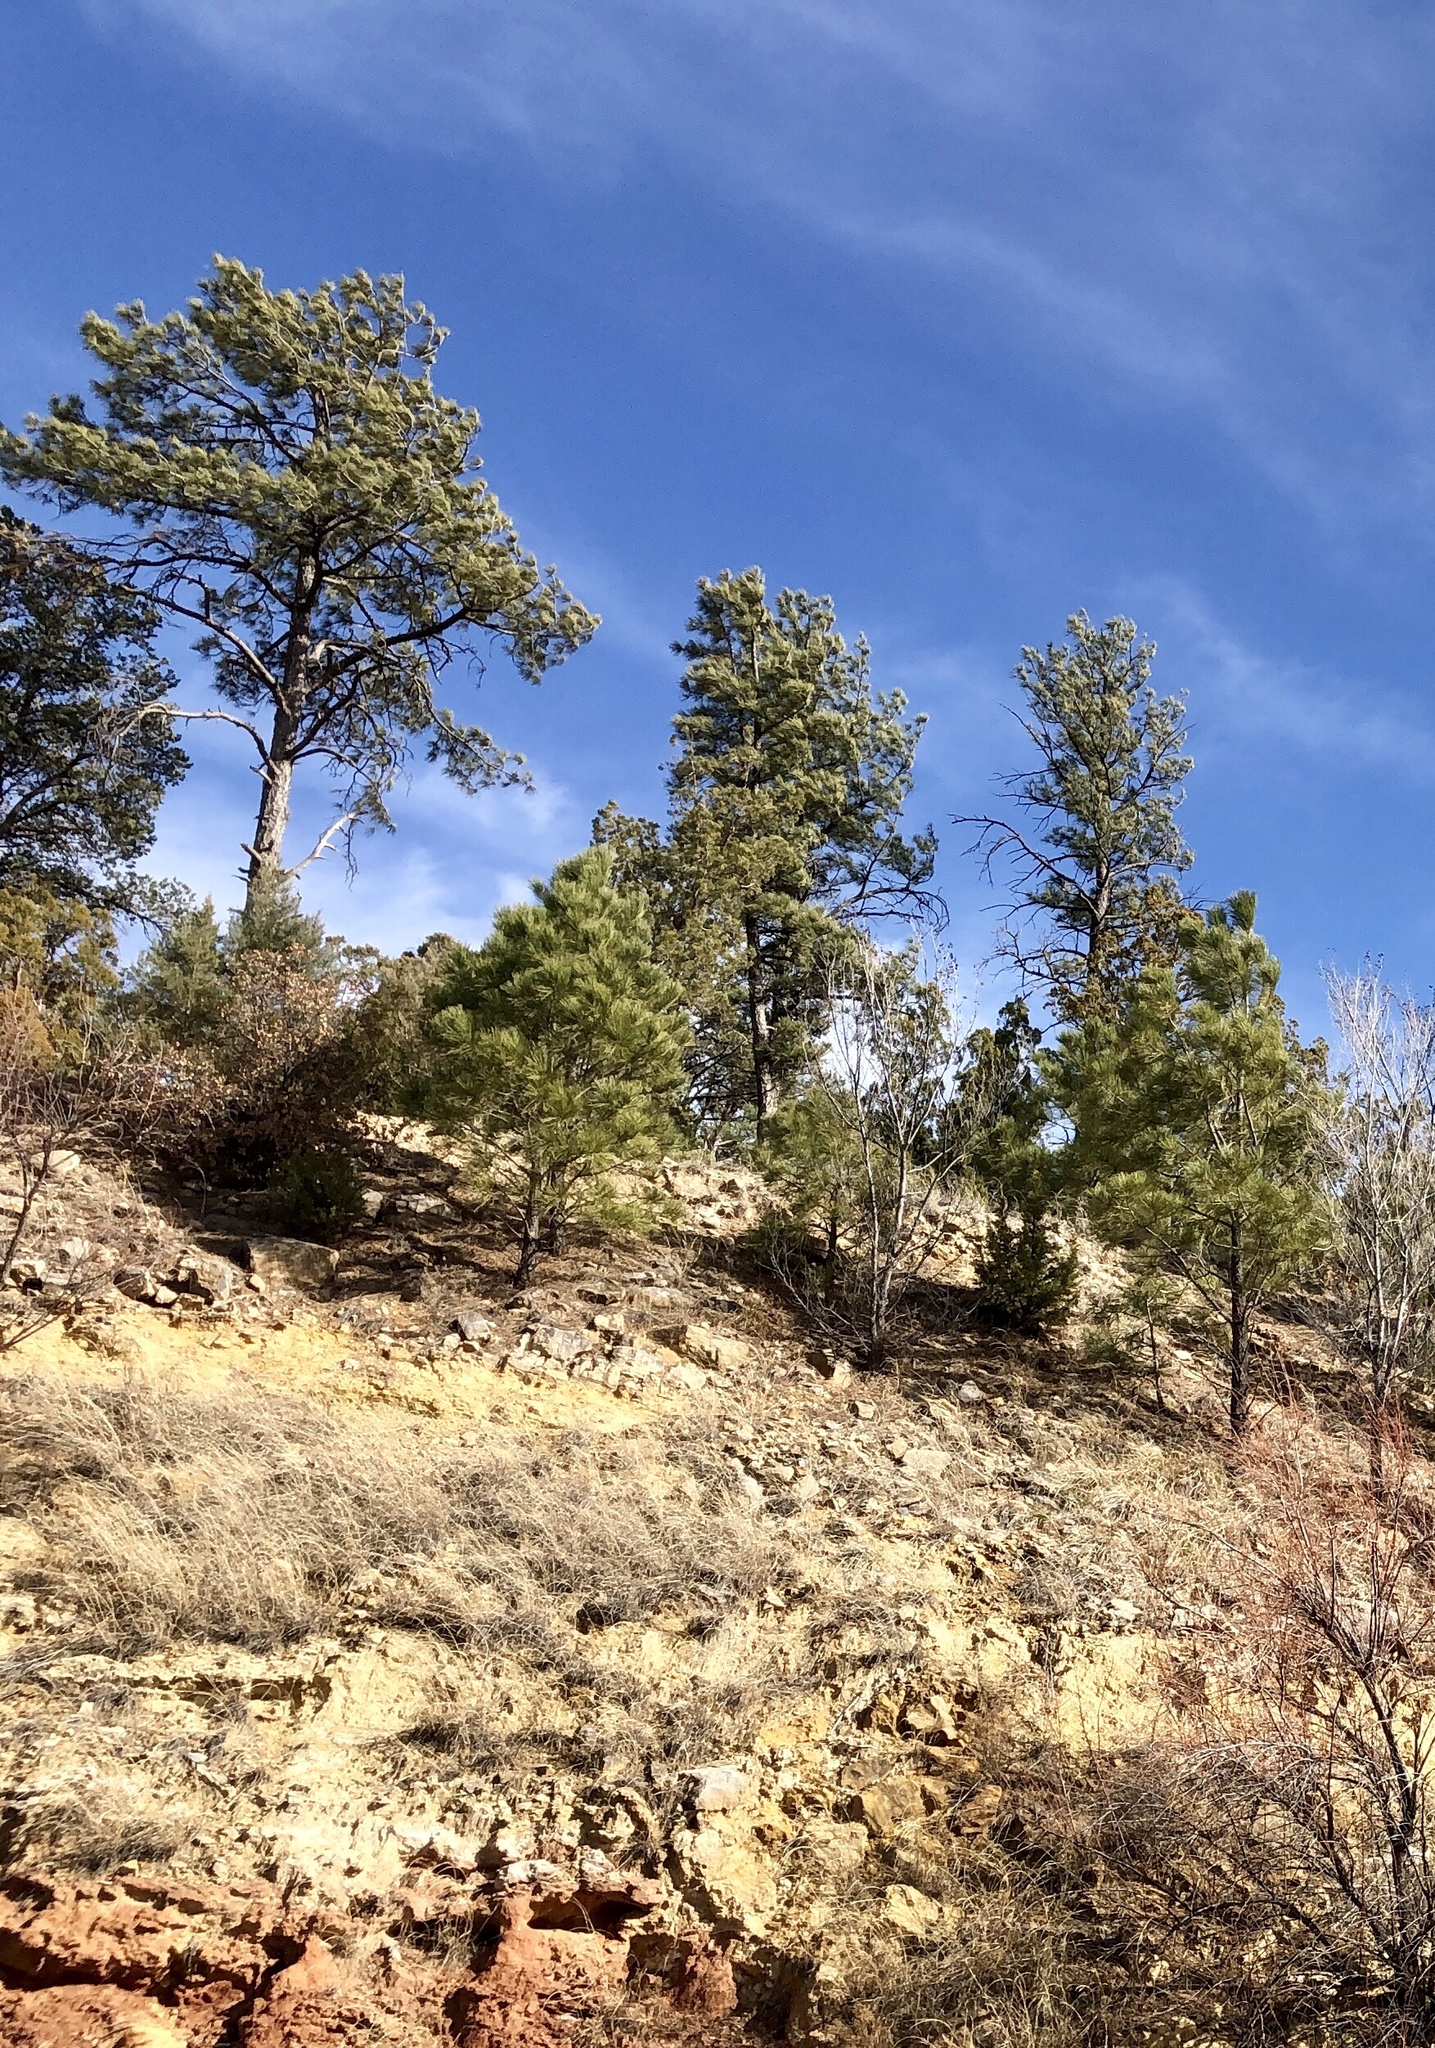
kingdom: Plantae
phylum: Tracheophyta
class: Pinopsida
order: Pinales
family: Pinaceae
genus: Pinus
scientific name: Pinus ponderosa
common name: Western yellow-pine
